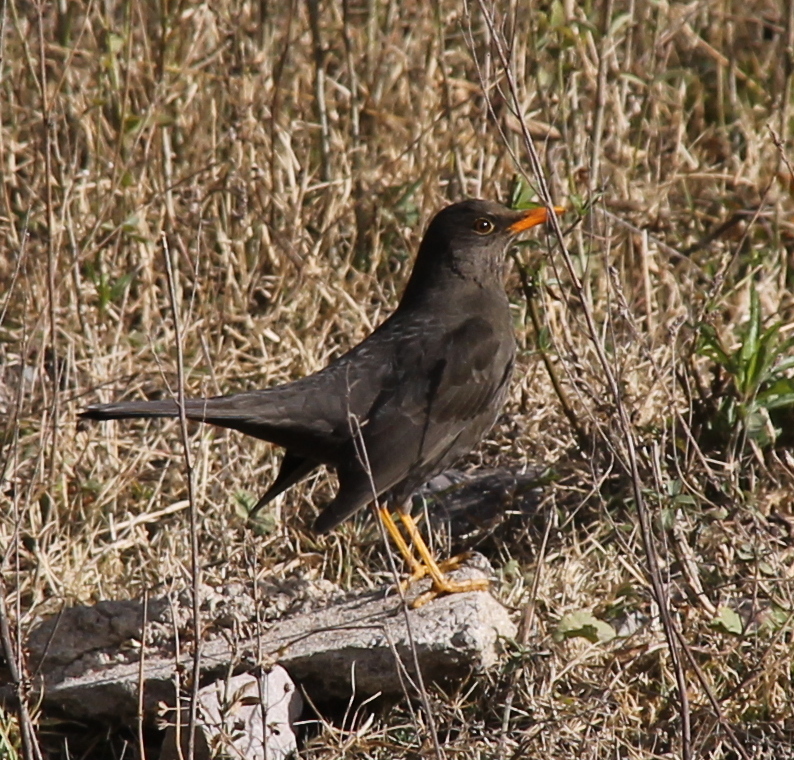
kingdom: Animalia
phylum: Chordata
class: Aves
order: Passeriformes
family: Turdidae
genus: Turdus
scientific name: Turdus chiguanco
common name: Chiguanco thrush
